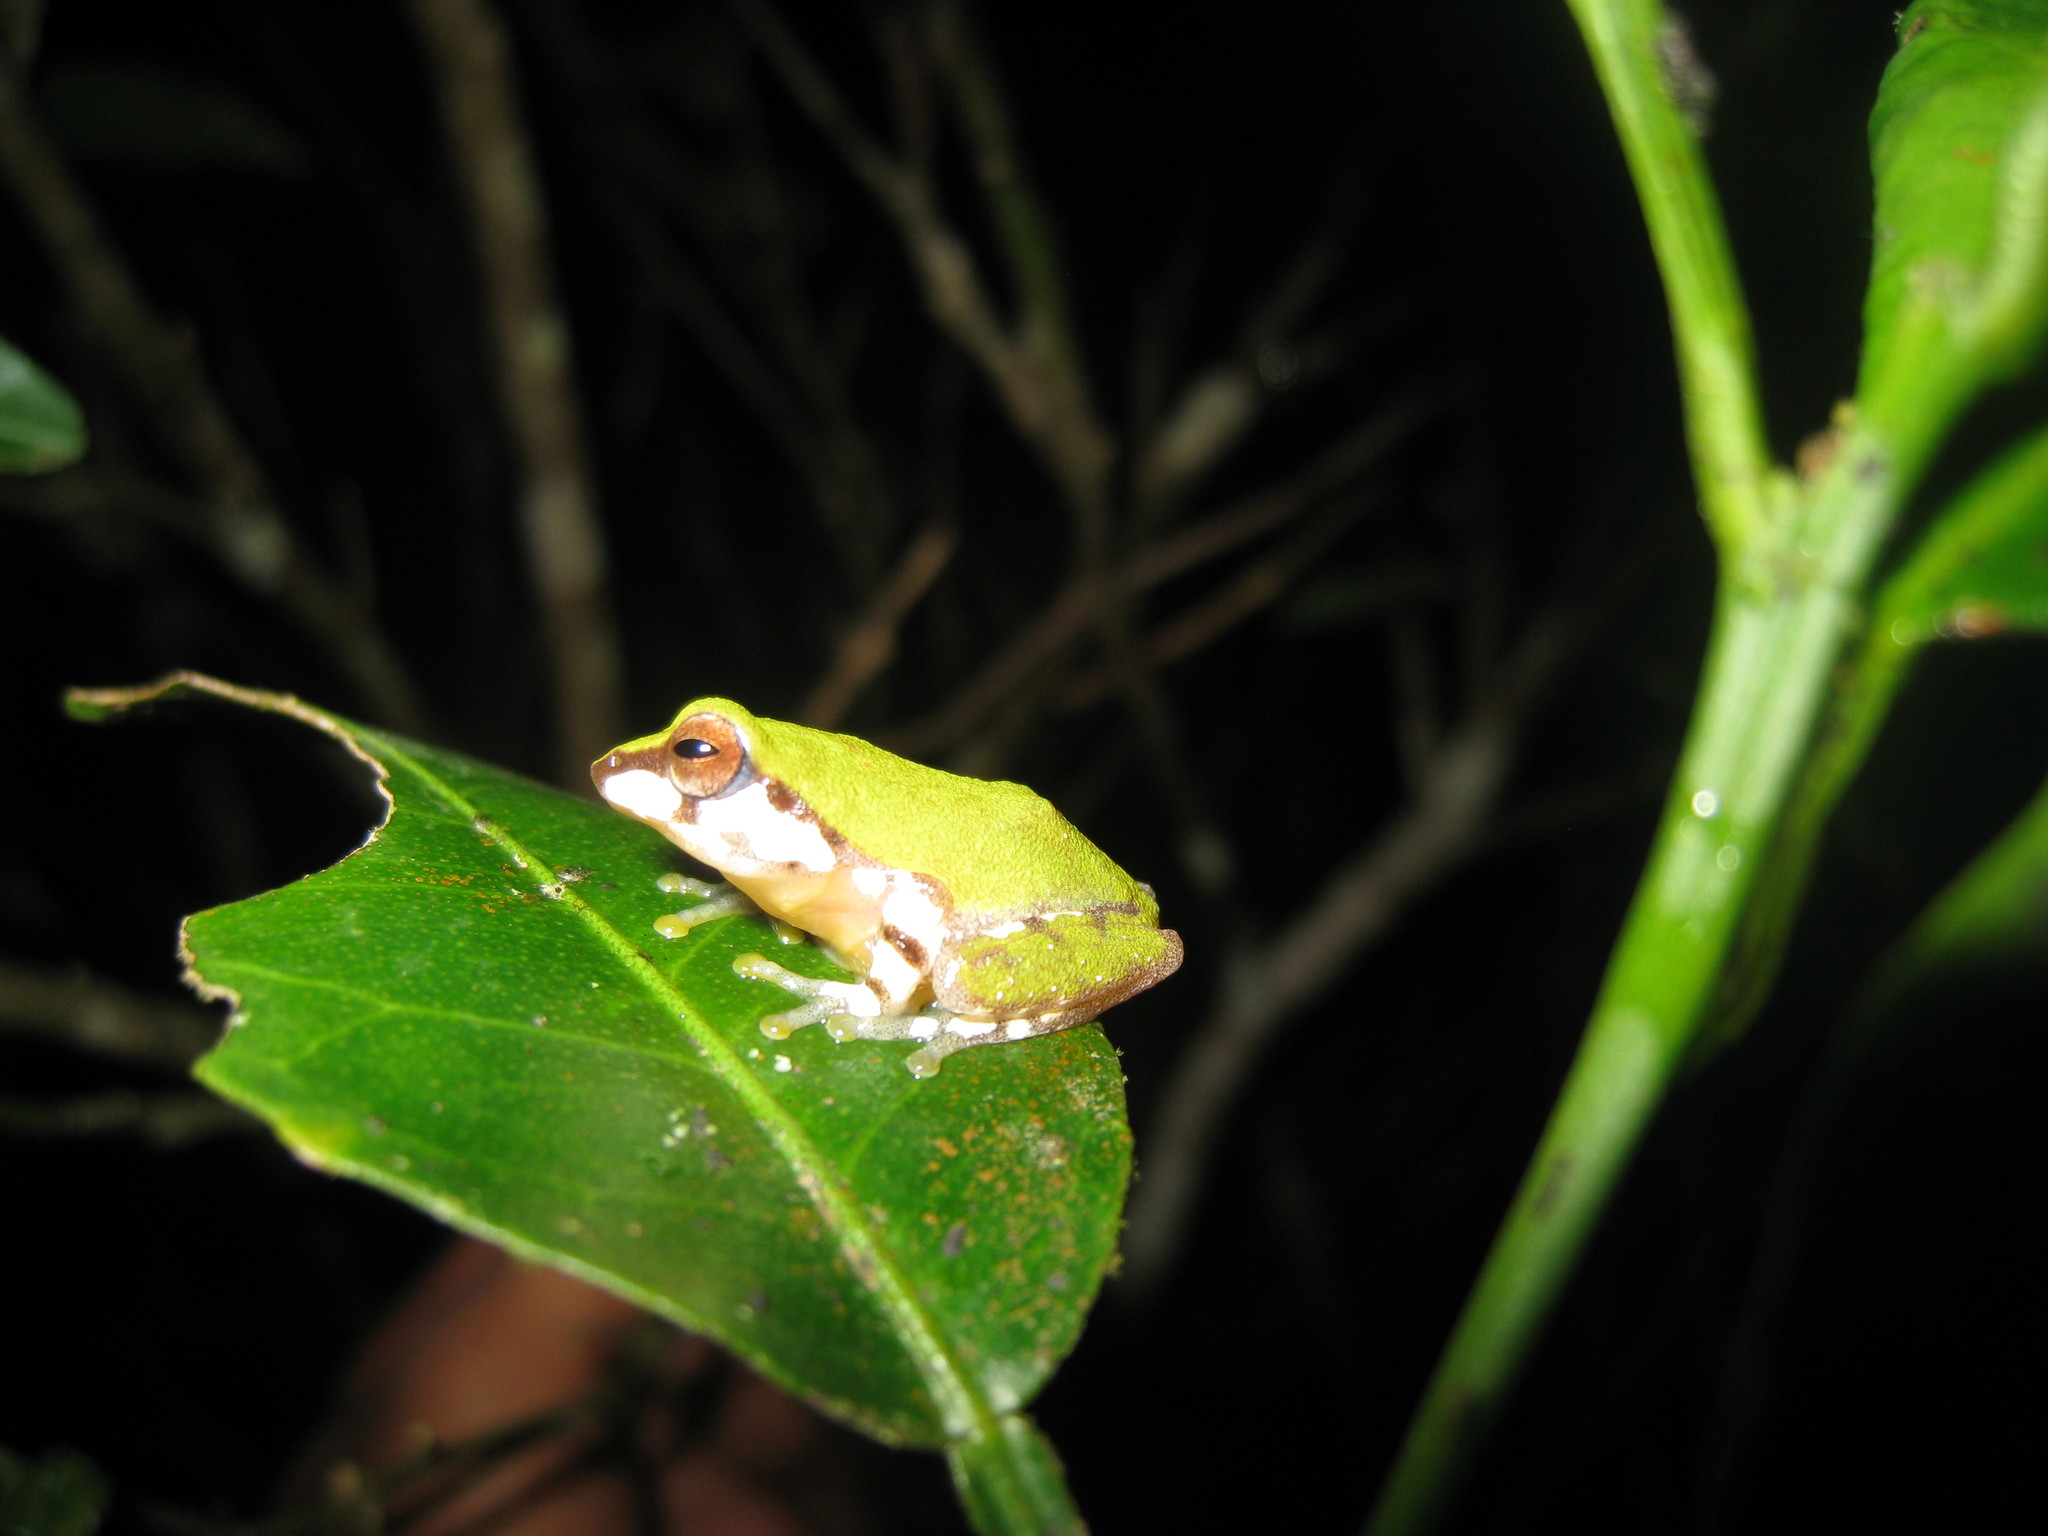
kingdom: Animalia
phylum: Chordata
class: Amphibia
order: Anura
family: Rhacophoridae
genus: Raorchestes
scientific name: Raorchestes akroparallagi
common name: Variable bush frog
